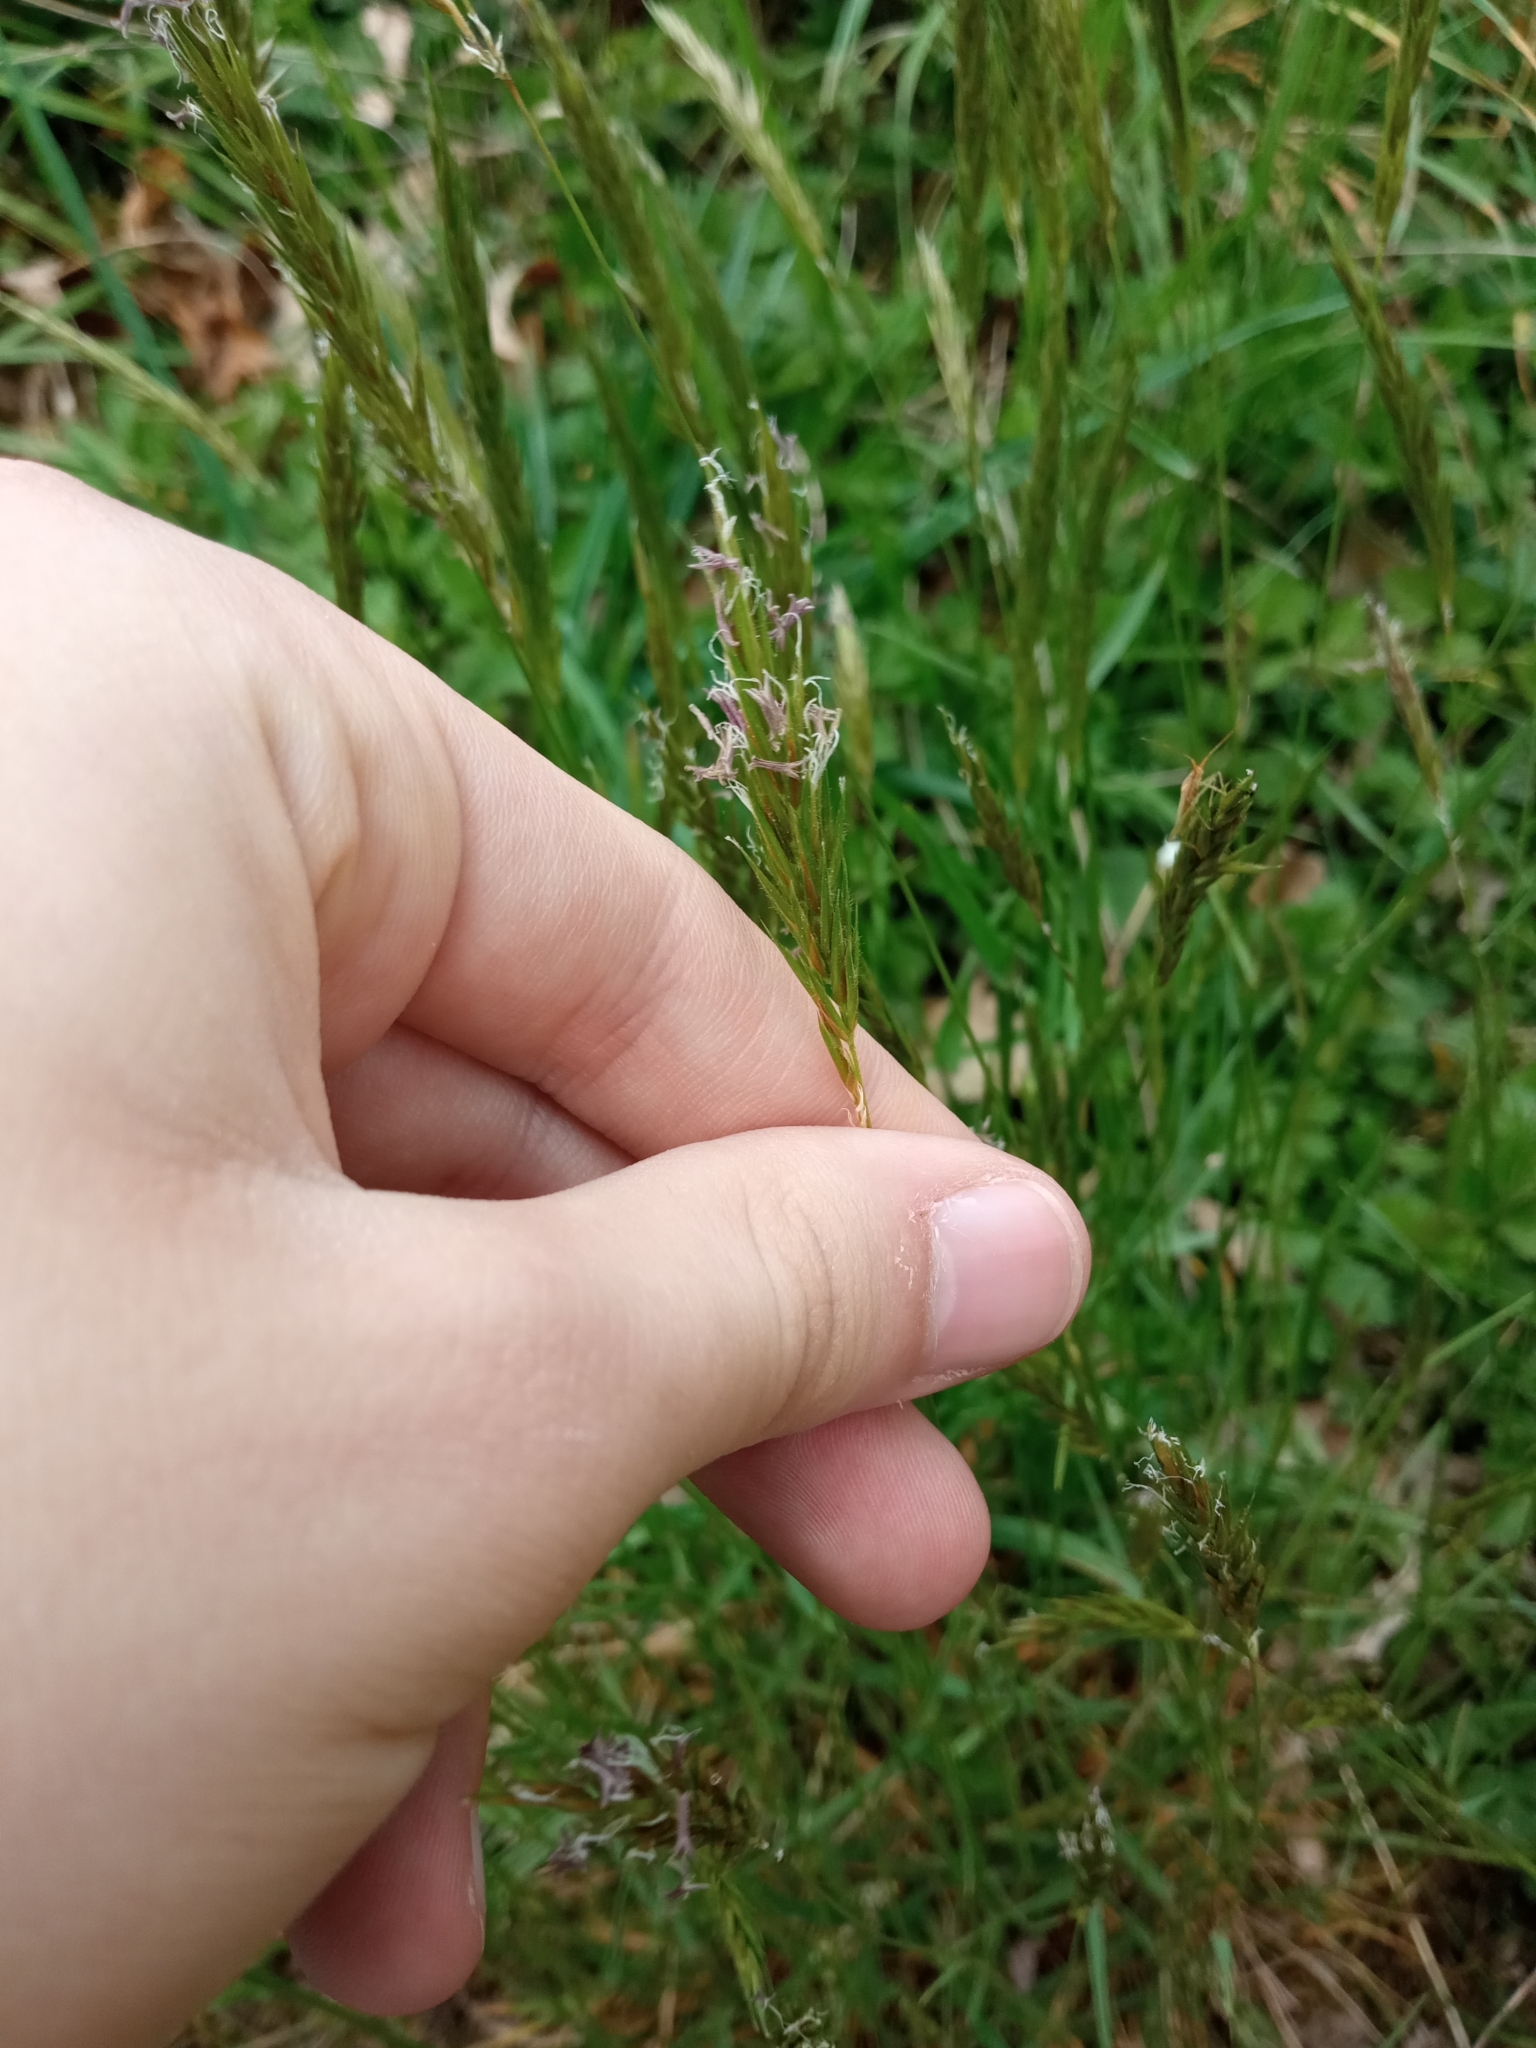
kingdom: Plantae
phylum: Tracheophyta
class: Liliopsida
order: Poales
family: Poaceae
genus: Anthoxanthum
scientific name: Anthoxanthum odoratum
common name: Sweet vernalgrass
